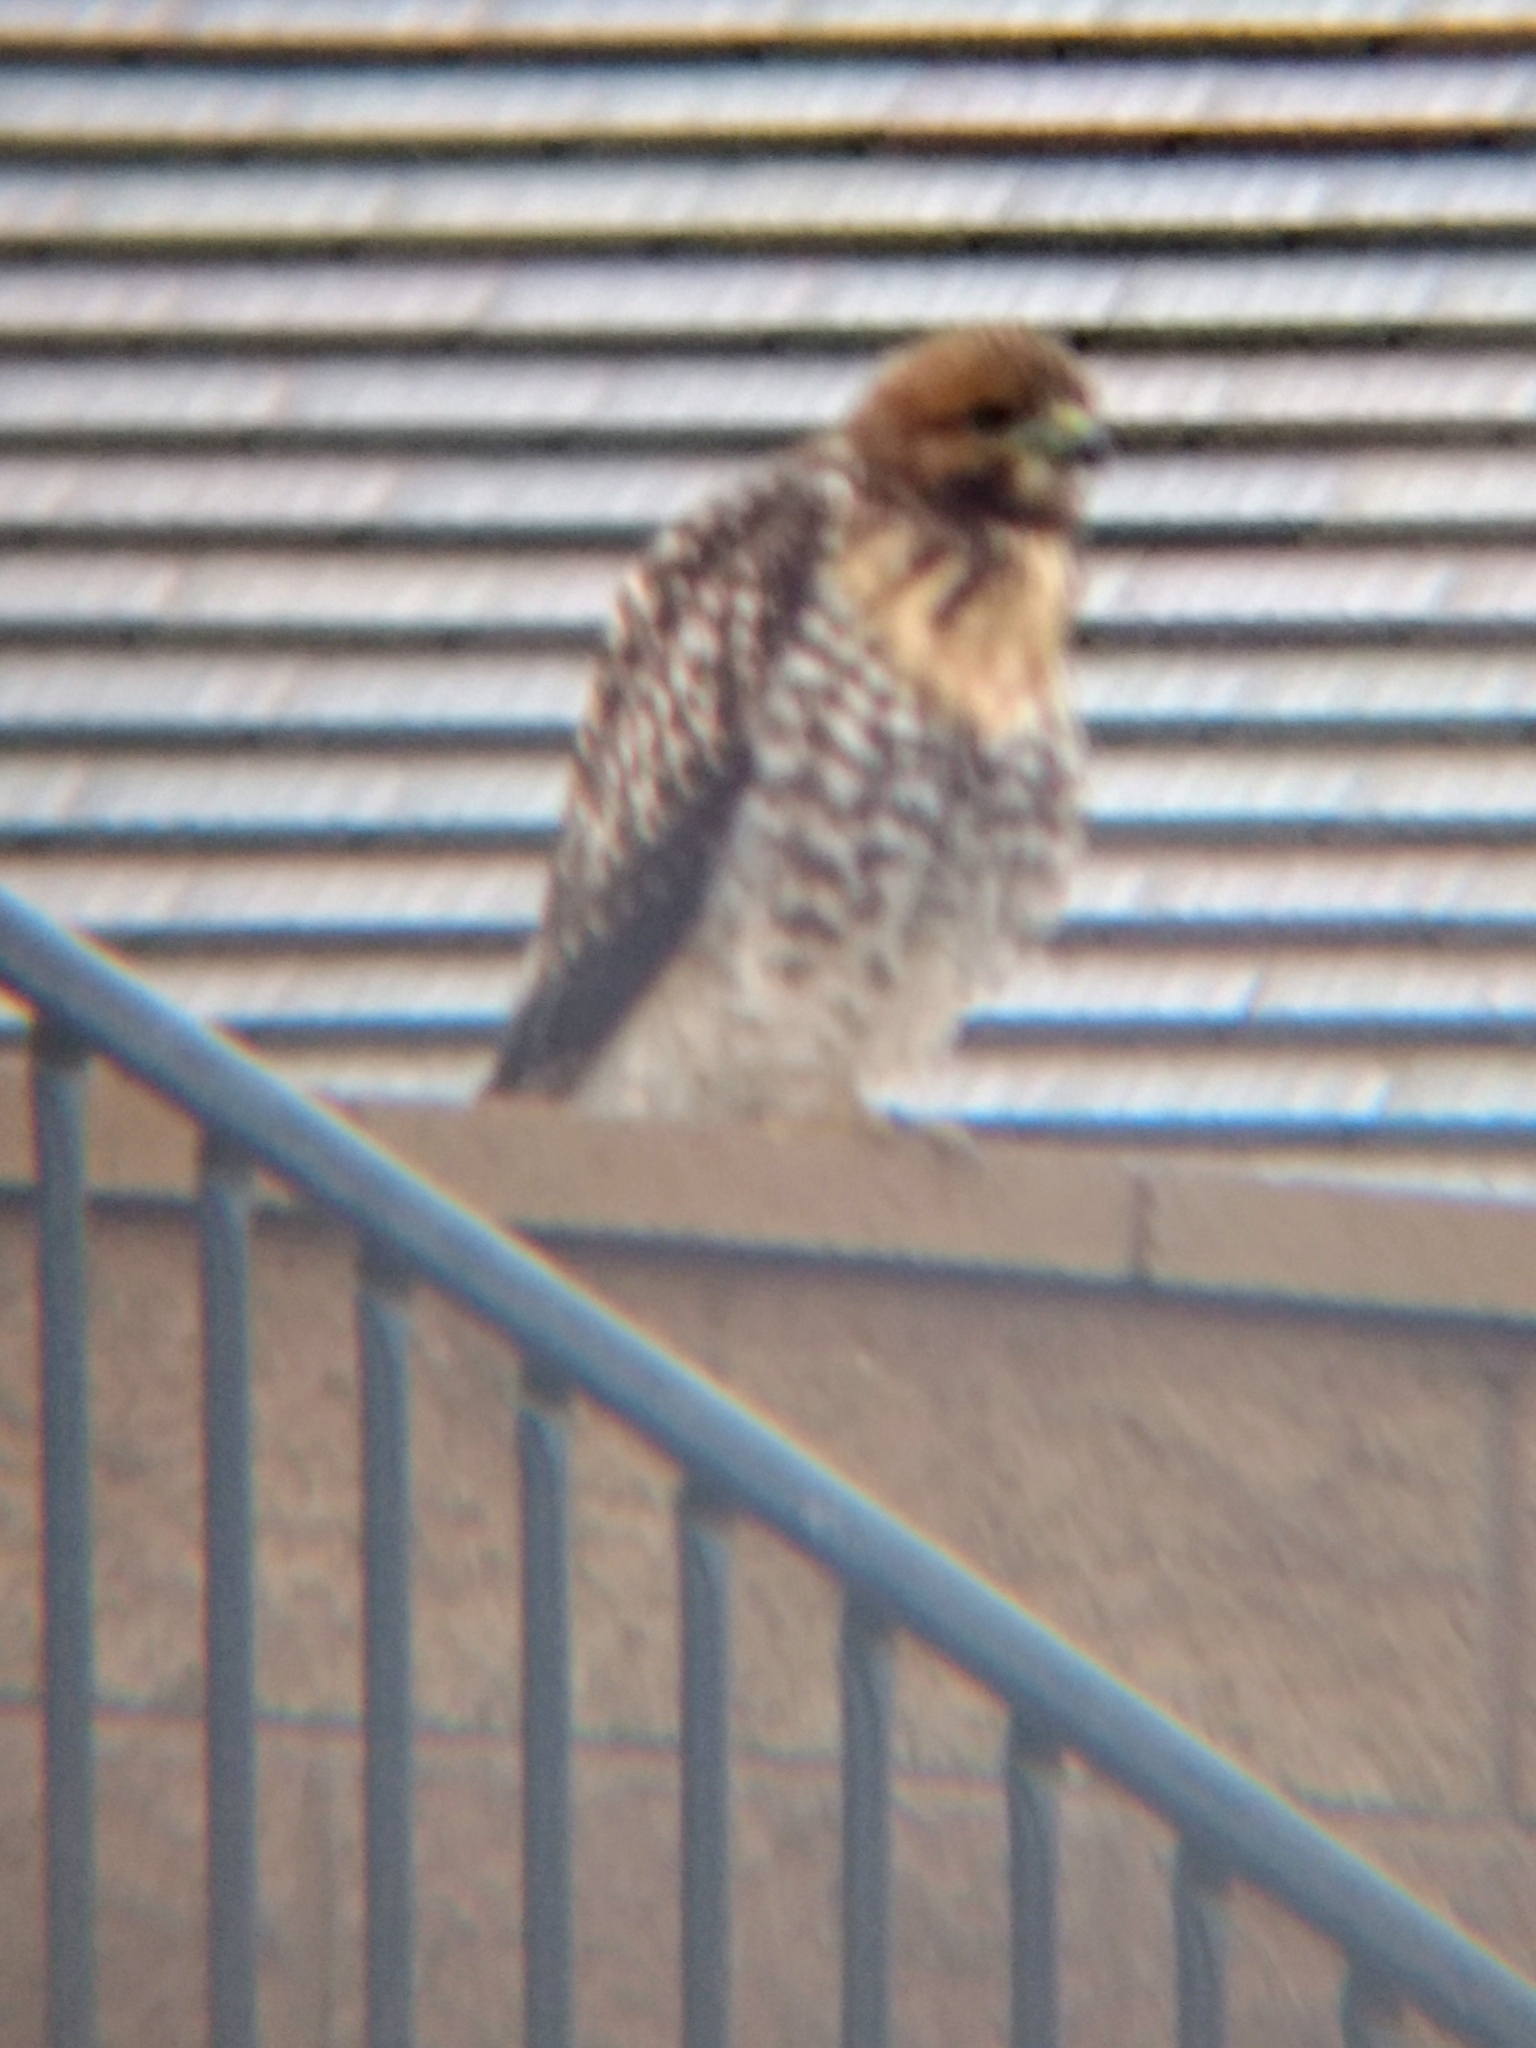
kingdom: Animalia
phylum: Chordata
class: Aves
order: Accipitriformes
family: Accipitridae
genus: Buteo
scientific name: Buteo jamaicensis
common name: Red-tailed hawk
